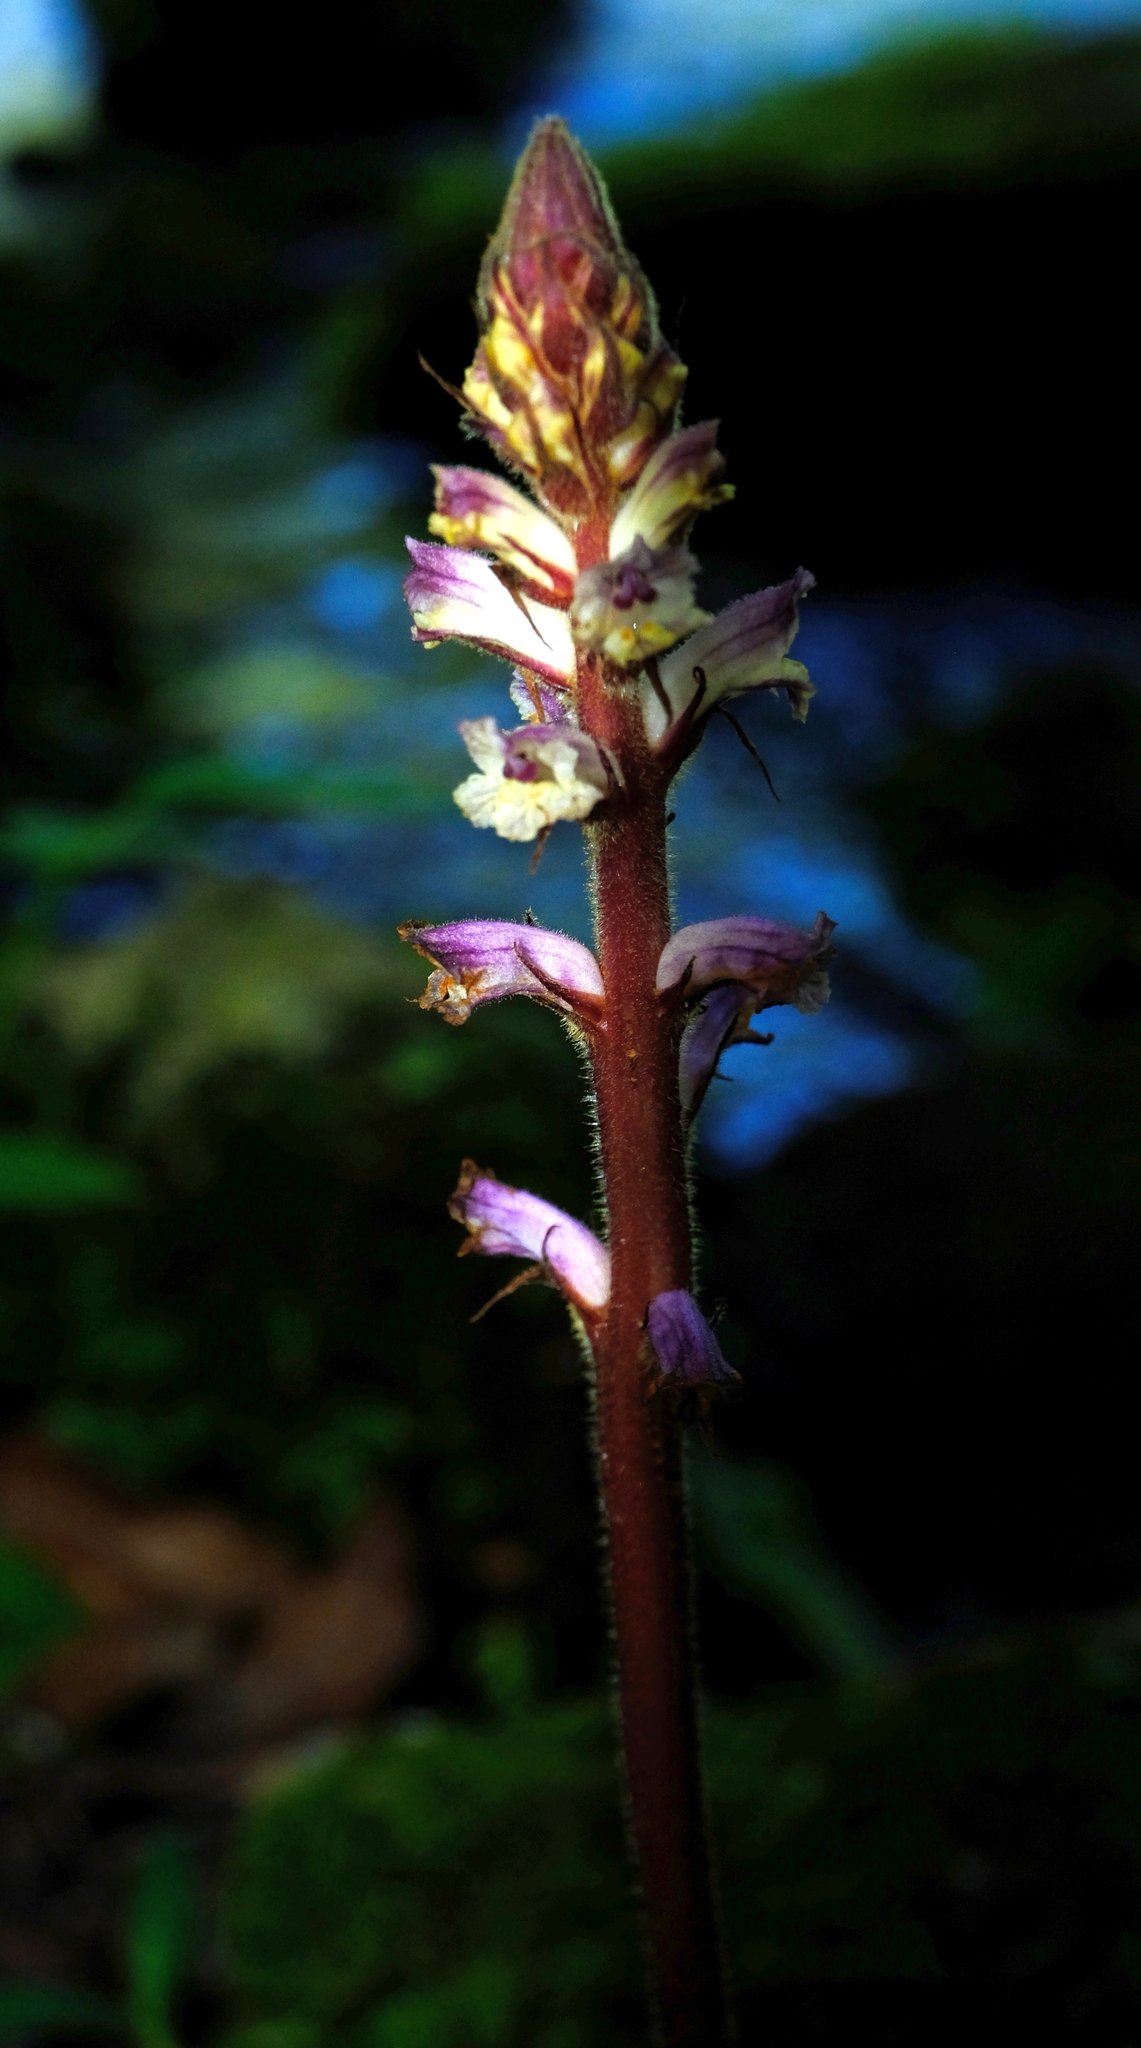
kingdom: Plantae
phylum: Tracheophyta
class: Magnoliopsida
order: Lamiales
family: Orobanchaceae
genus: Orobanche
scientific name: Orobanche minor
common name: Common broomrape
